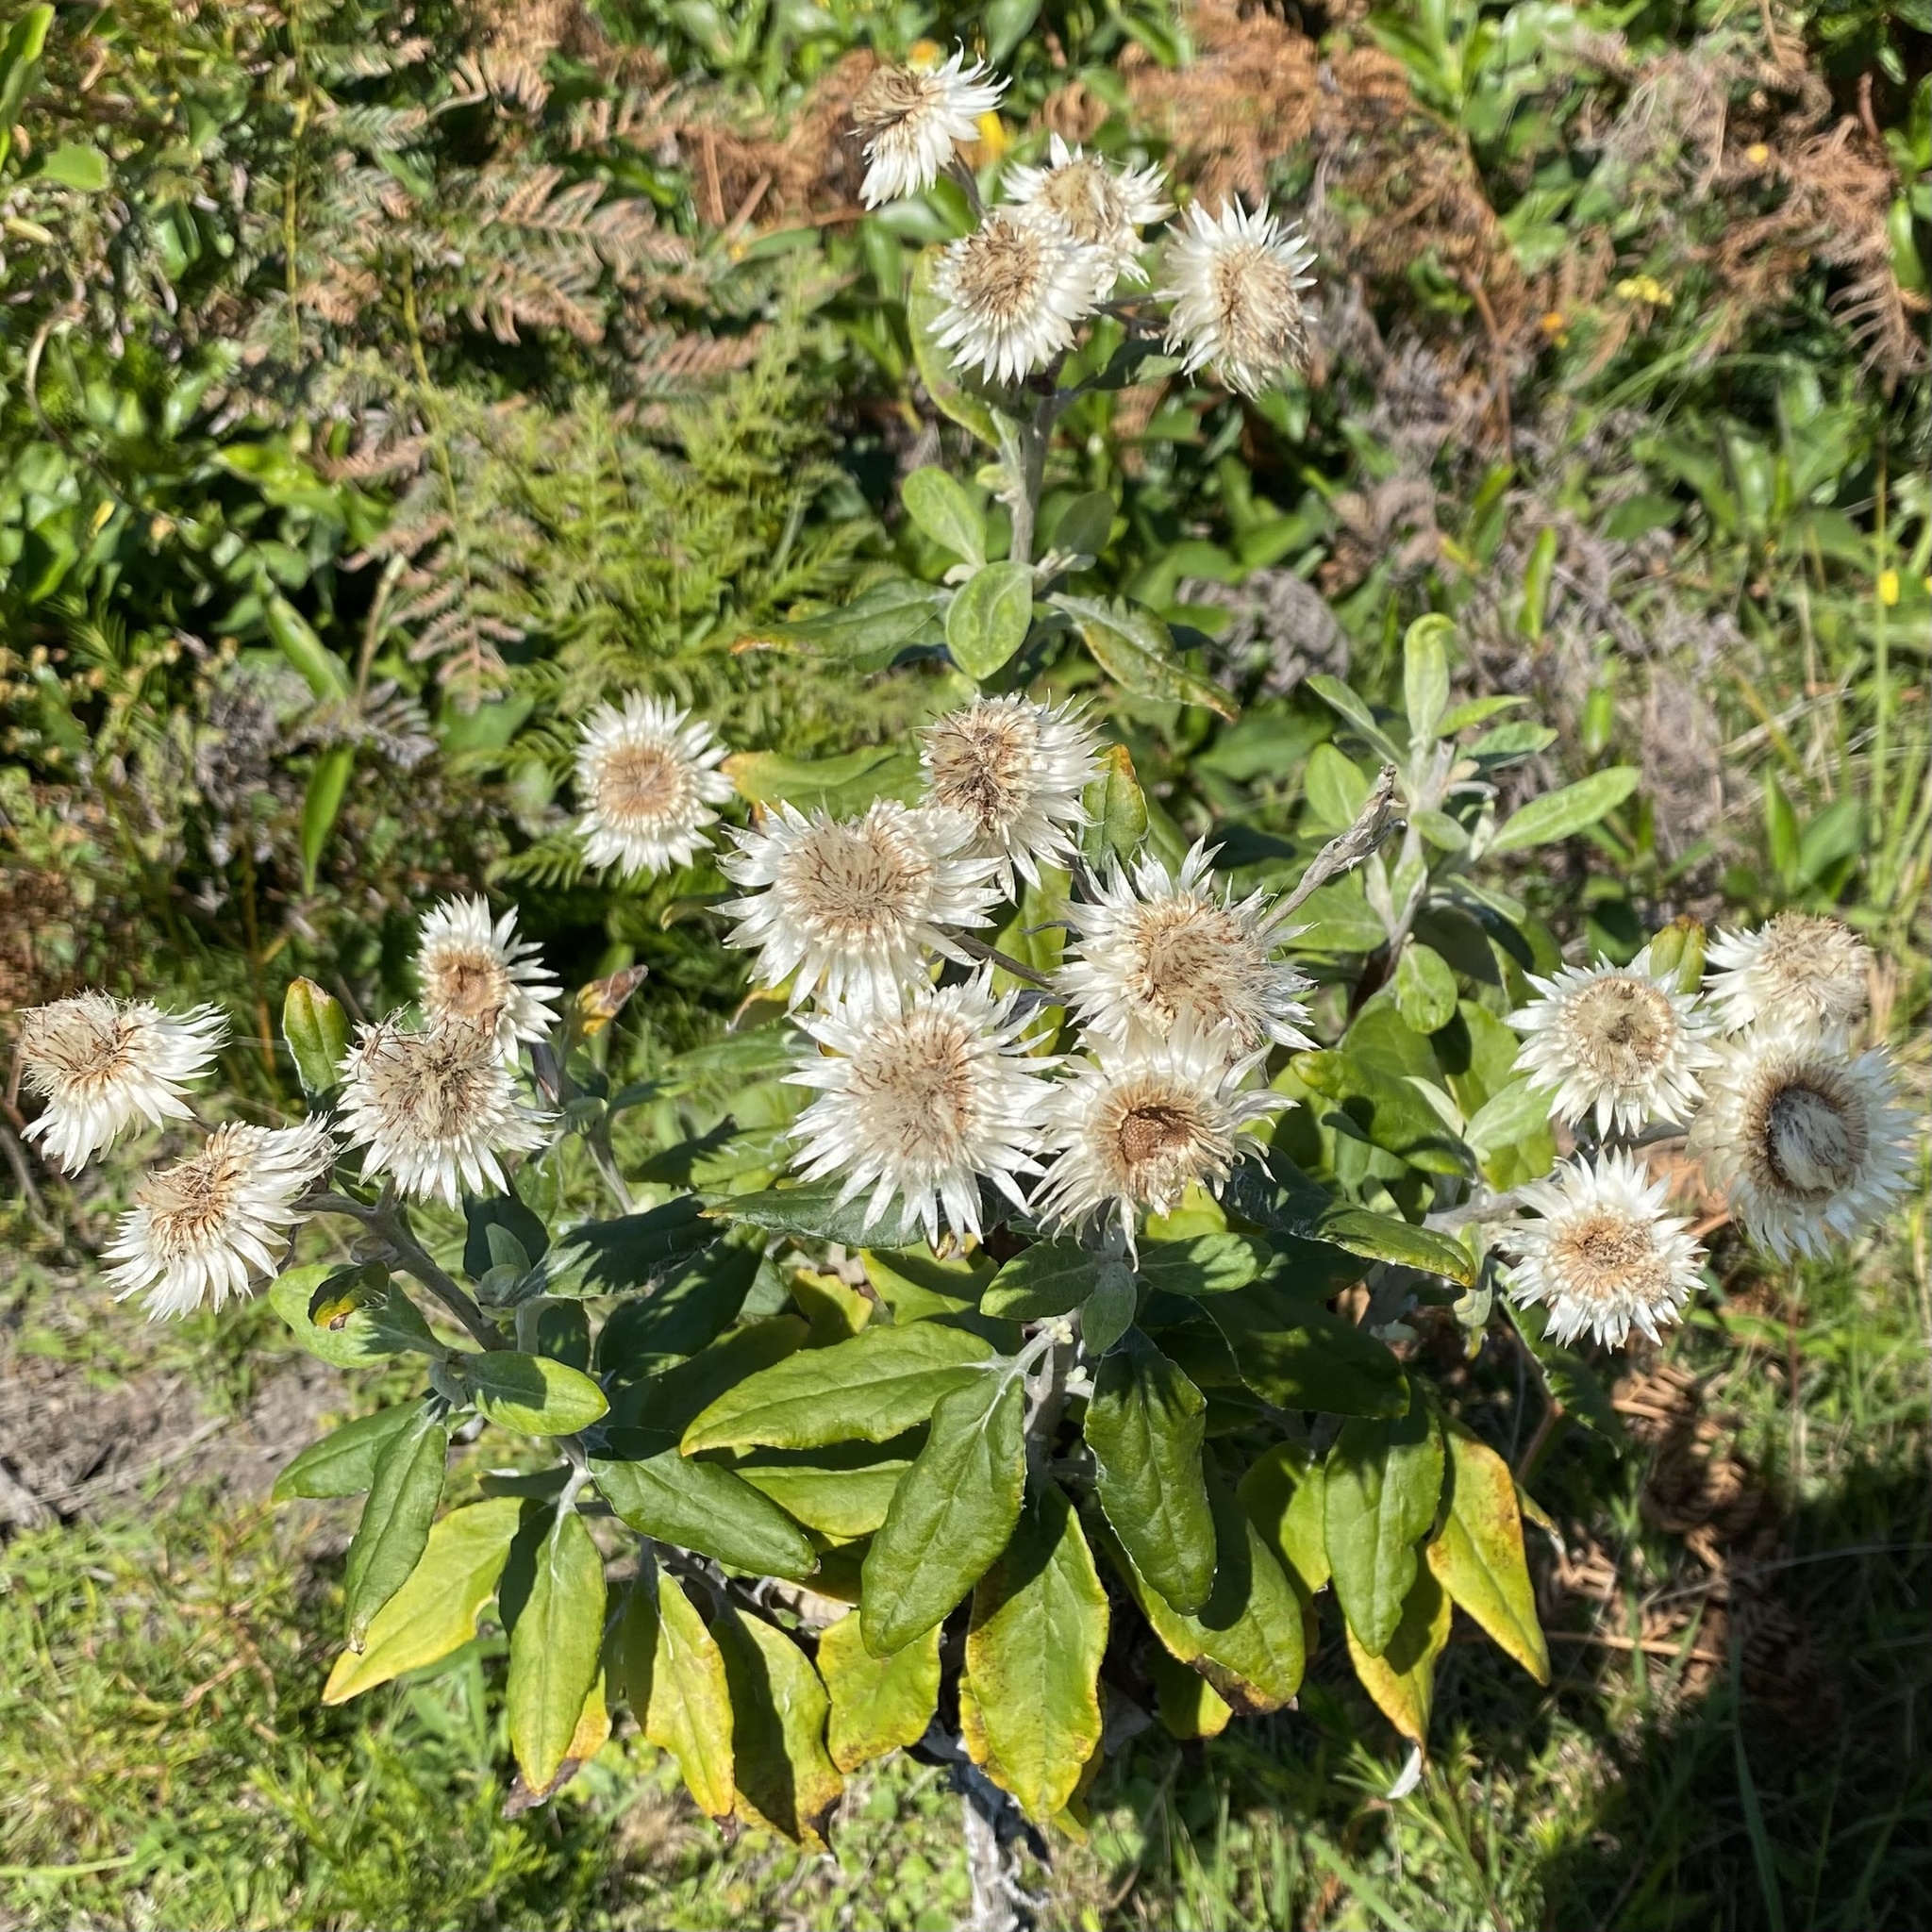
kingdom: Plantae
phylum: Tracheophyta
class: Magnoliopsida
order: Asterales
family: Asteraceae
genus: Leucozoma
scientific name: Leucozoma elatum
